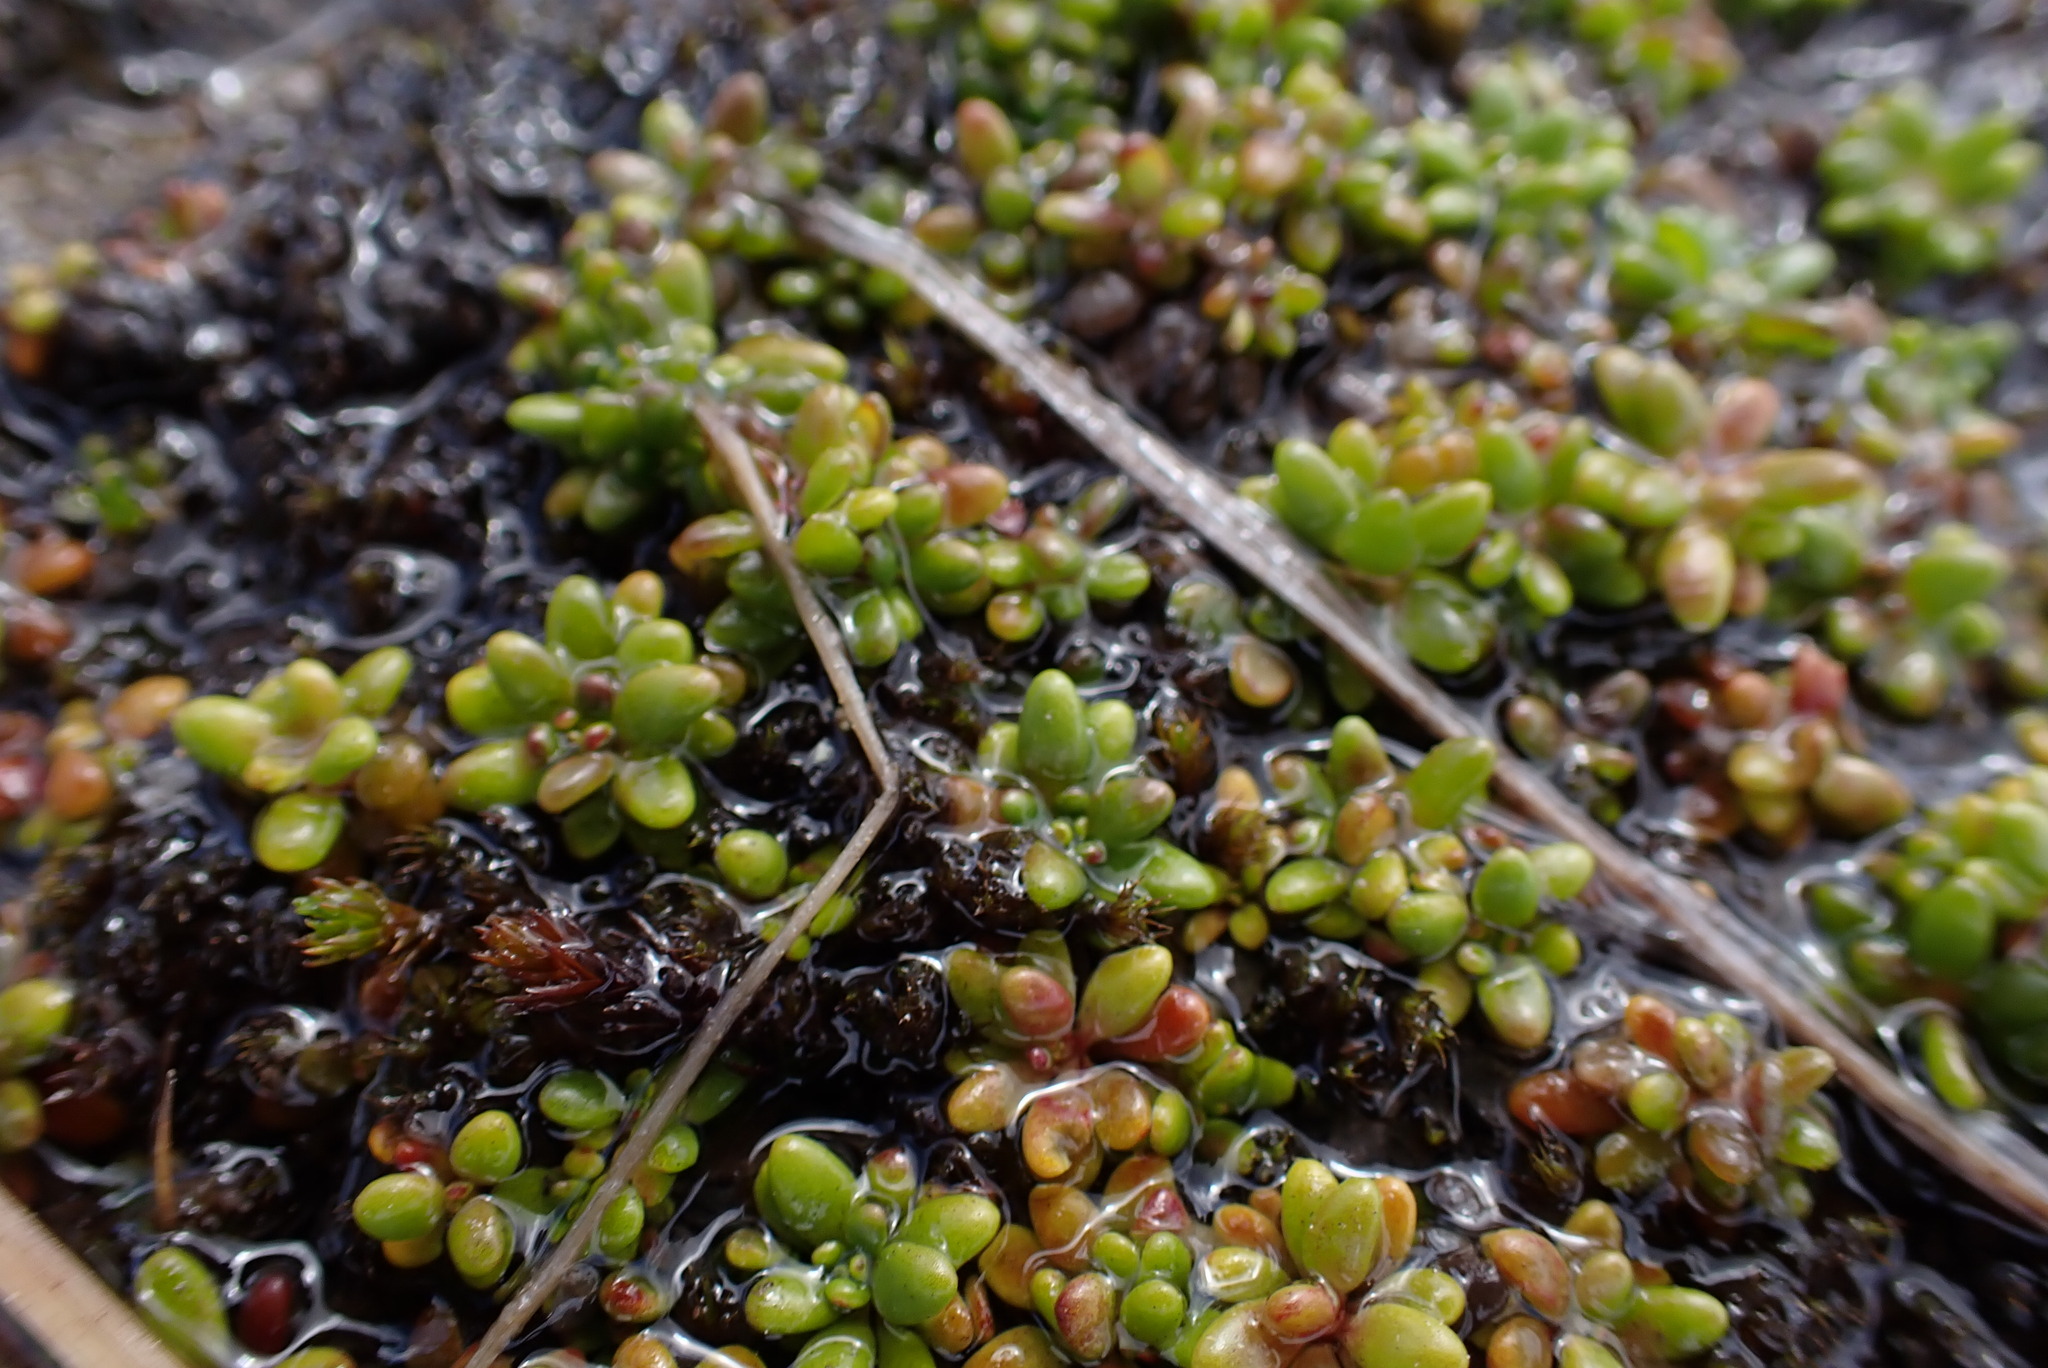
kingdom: Plantae
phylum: Tracheophyta
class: Magnoliopsida
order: Saxifragales
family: Saxifragaceae
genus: Micranthes
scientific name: Micranthes tolmiei
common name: Tolmie's saxifrage
